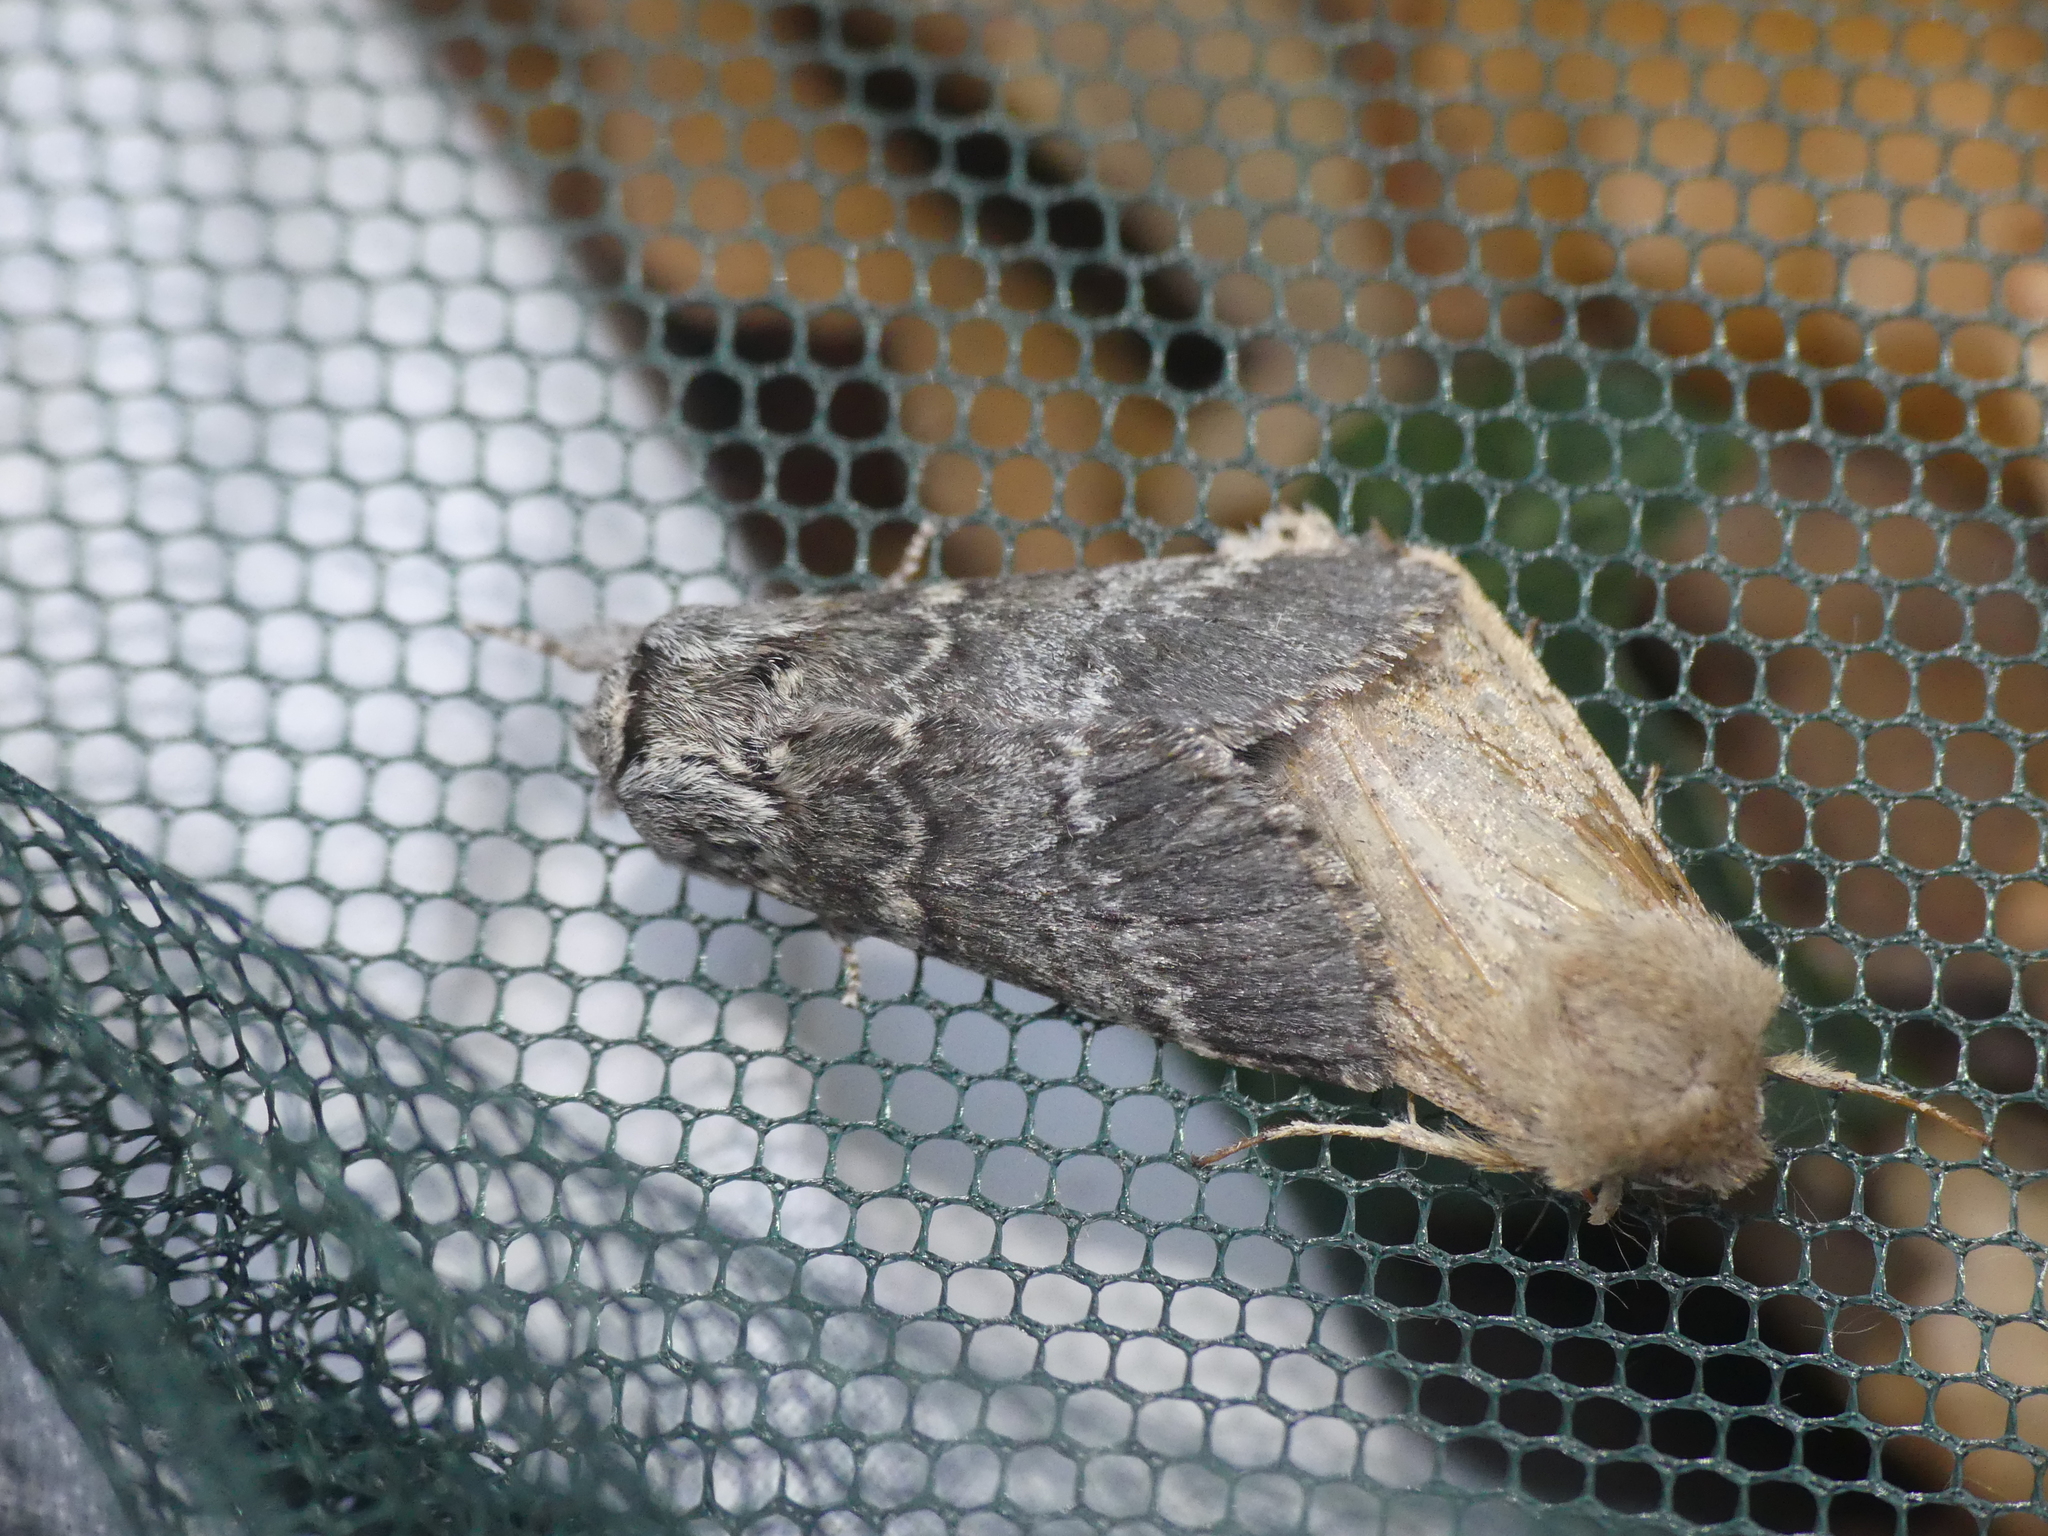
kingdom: Animalia
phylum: Arthropoda
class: Insecta
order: Lepidoptera
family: Notodontidae
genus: Drymonia
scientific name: Drymonia ruficornis
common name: Lunar marbled brown
